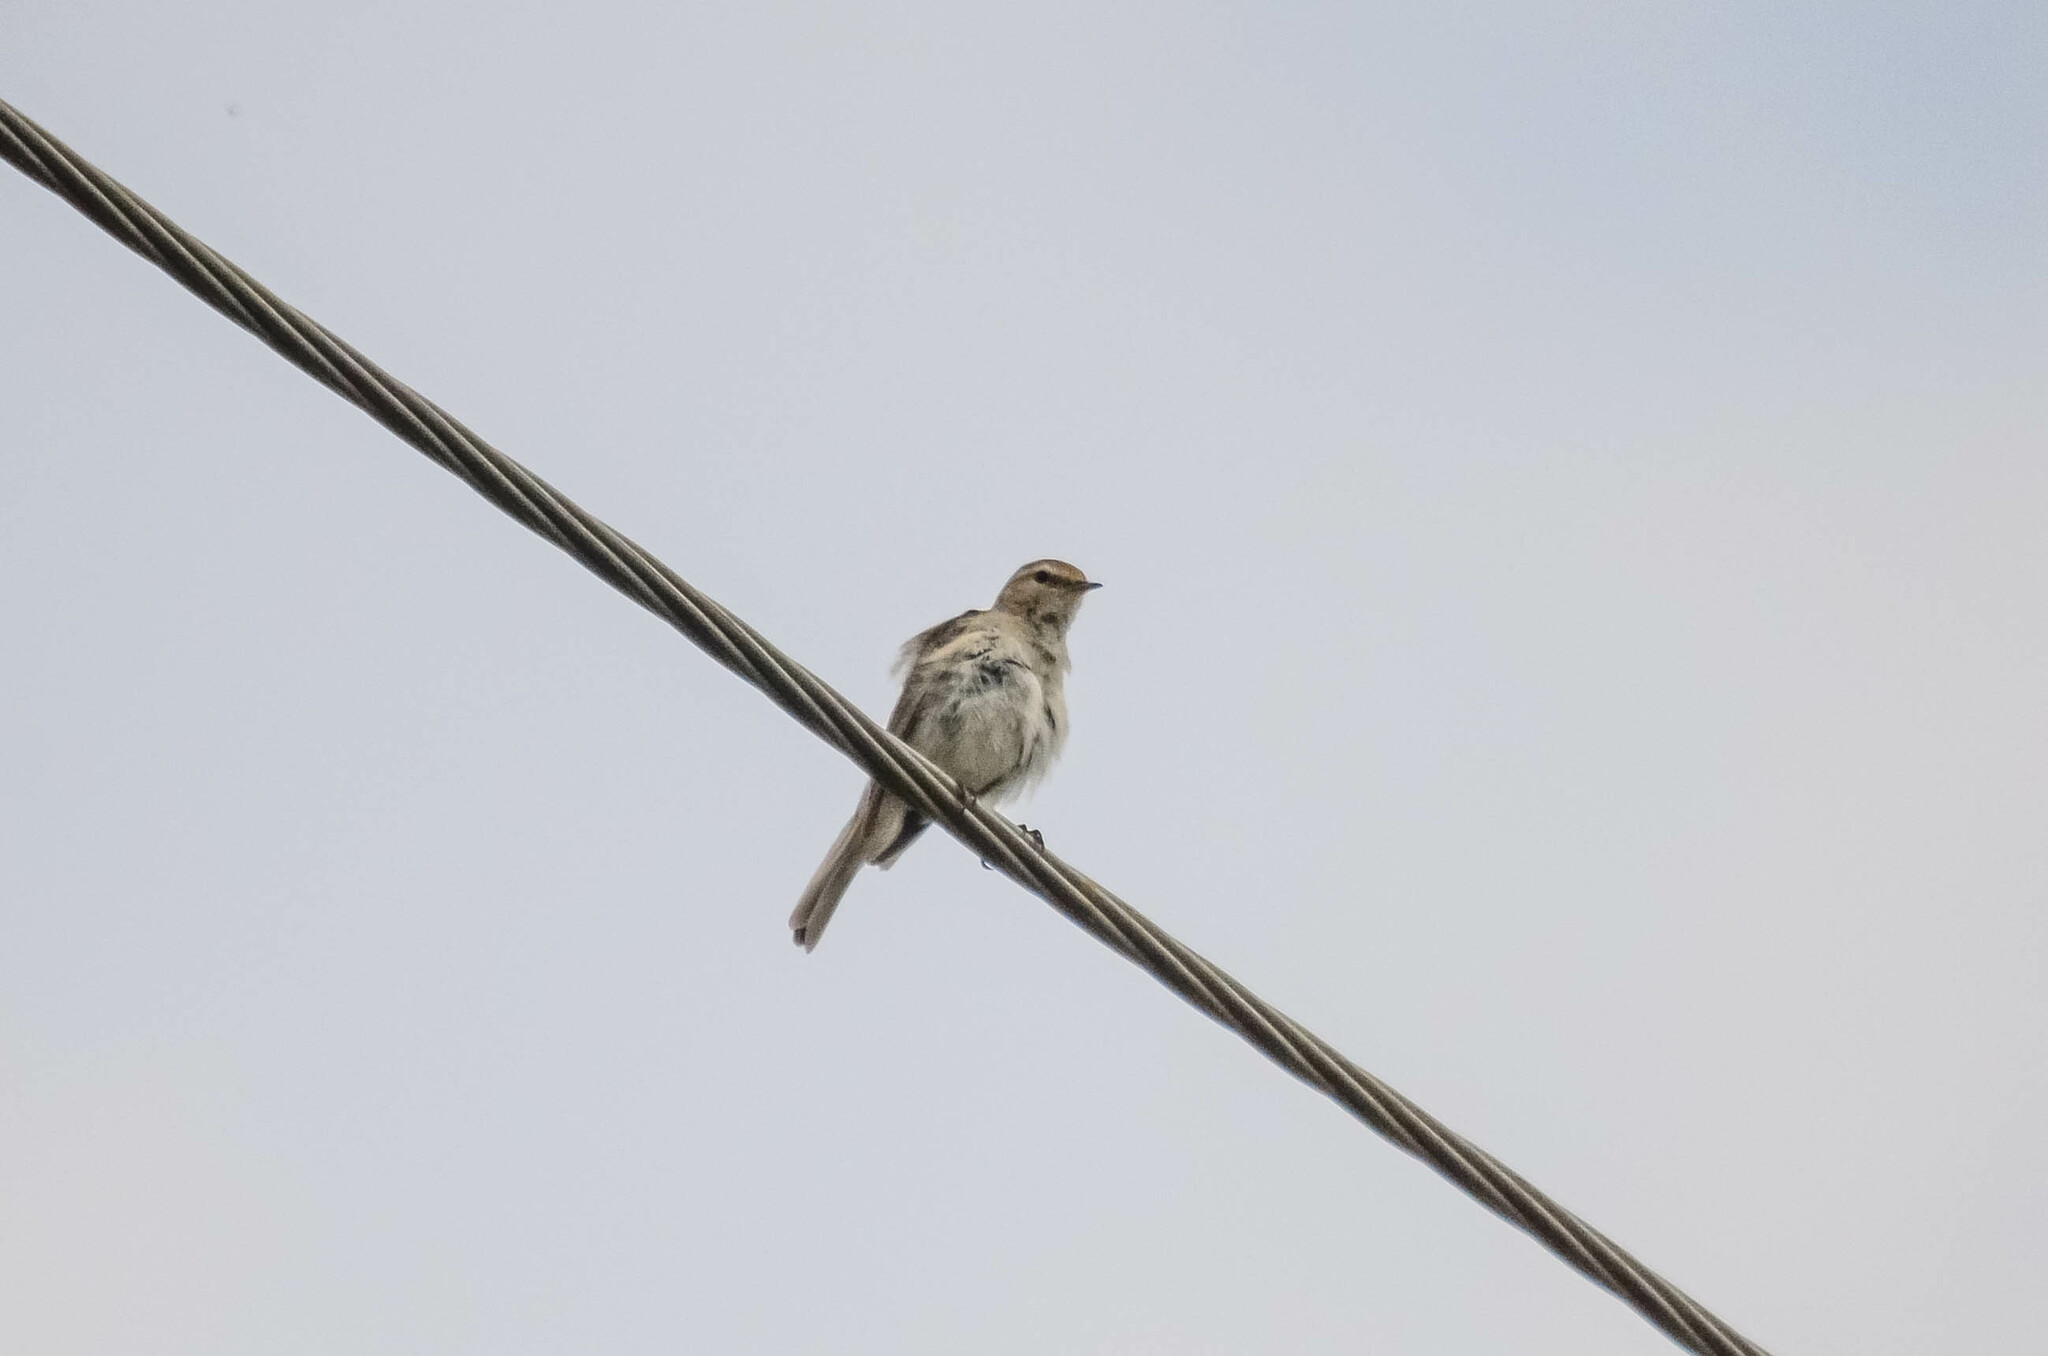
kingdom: Animalia
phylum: Chordata
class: Aves
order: Passeriformes
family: Phylloscopidae
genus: Phylloscopus
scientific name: Phylloscopus collybita
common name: Common chiffchaff
